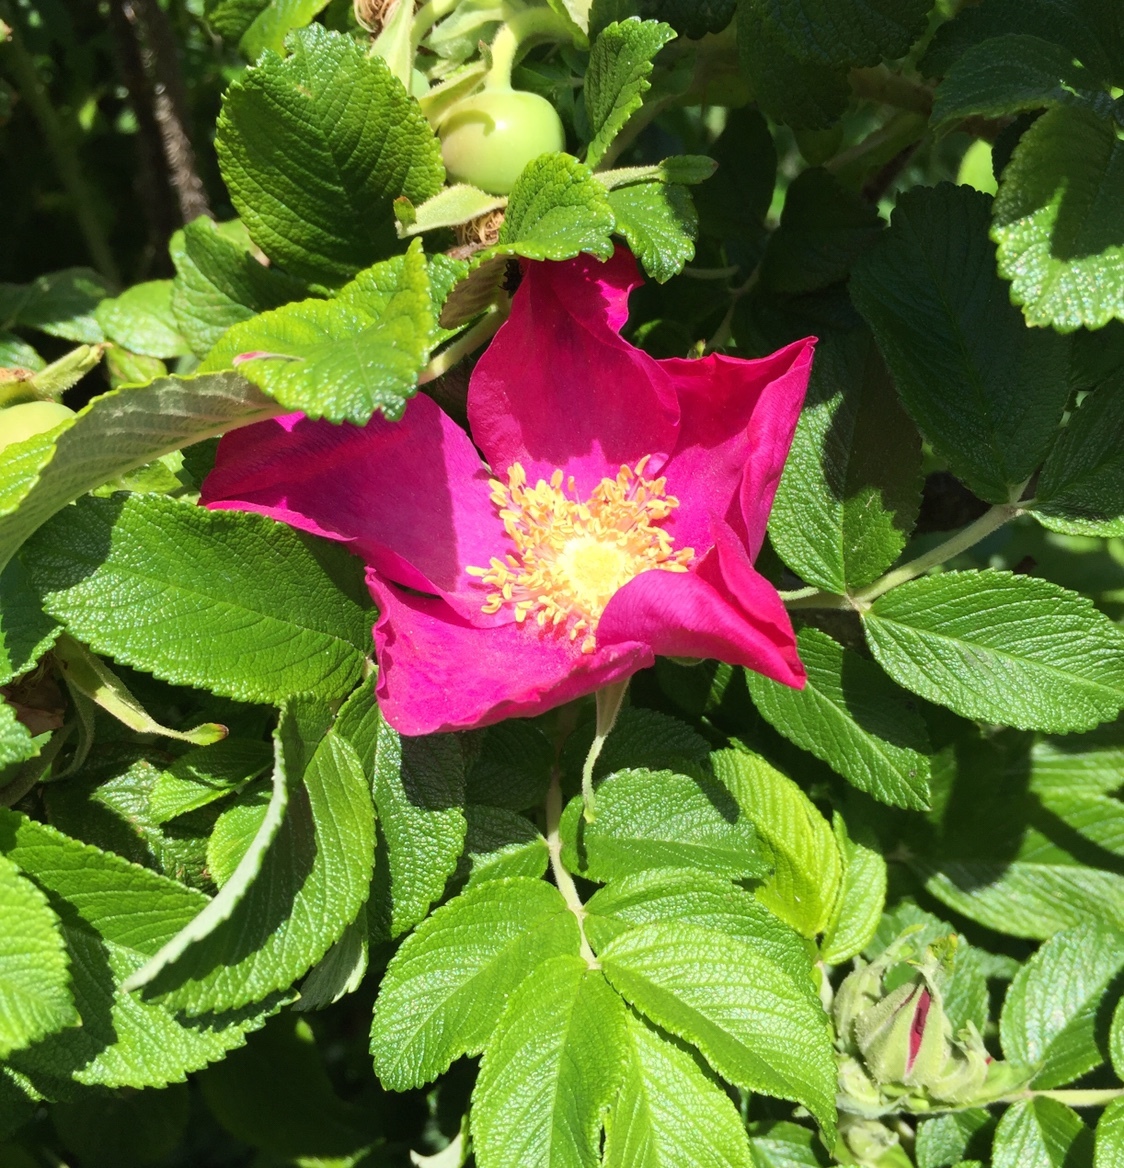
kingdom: Plantae
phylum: Tracheophyta
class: Magnoliopsida
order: Rosales
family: Rosaceae
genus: Rosa
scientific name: Rosa rugosa
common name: Japanese rose
